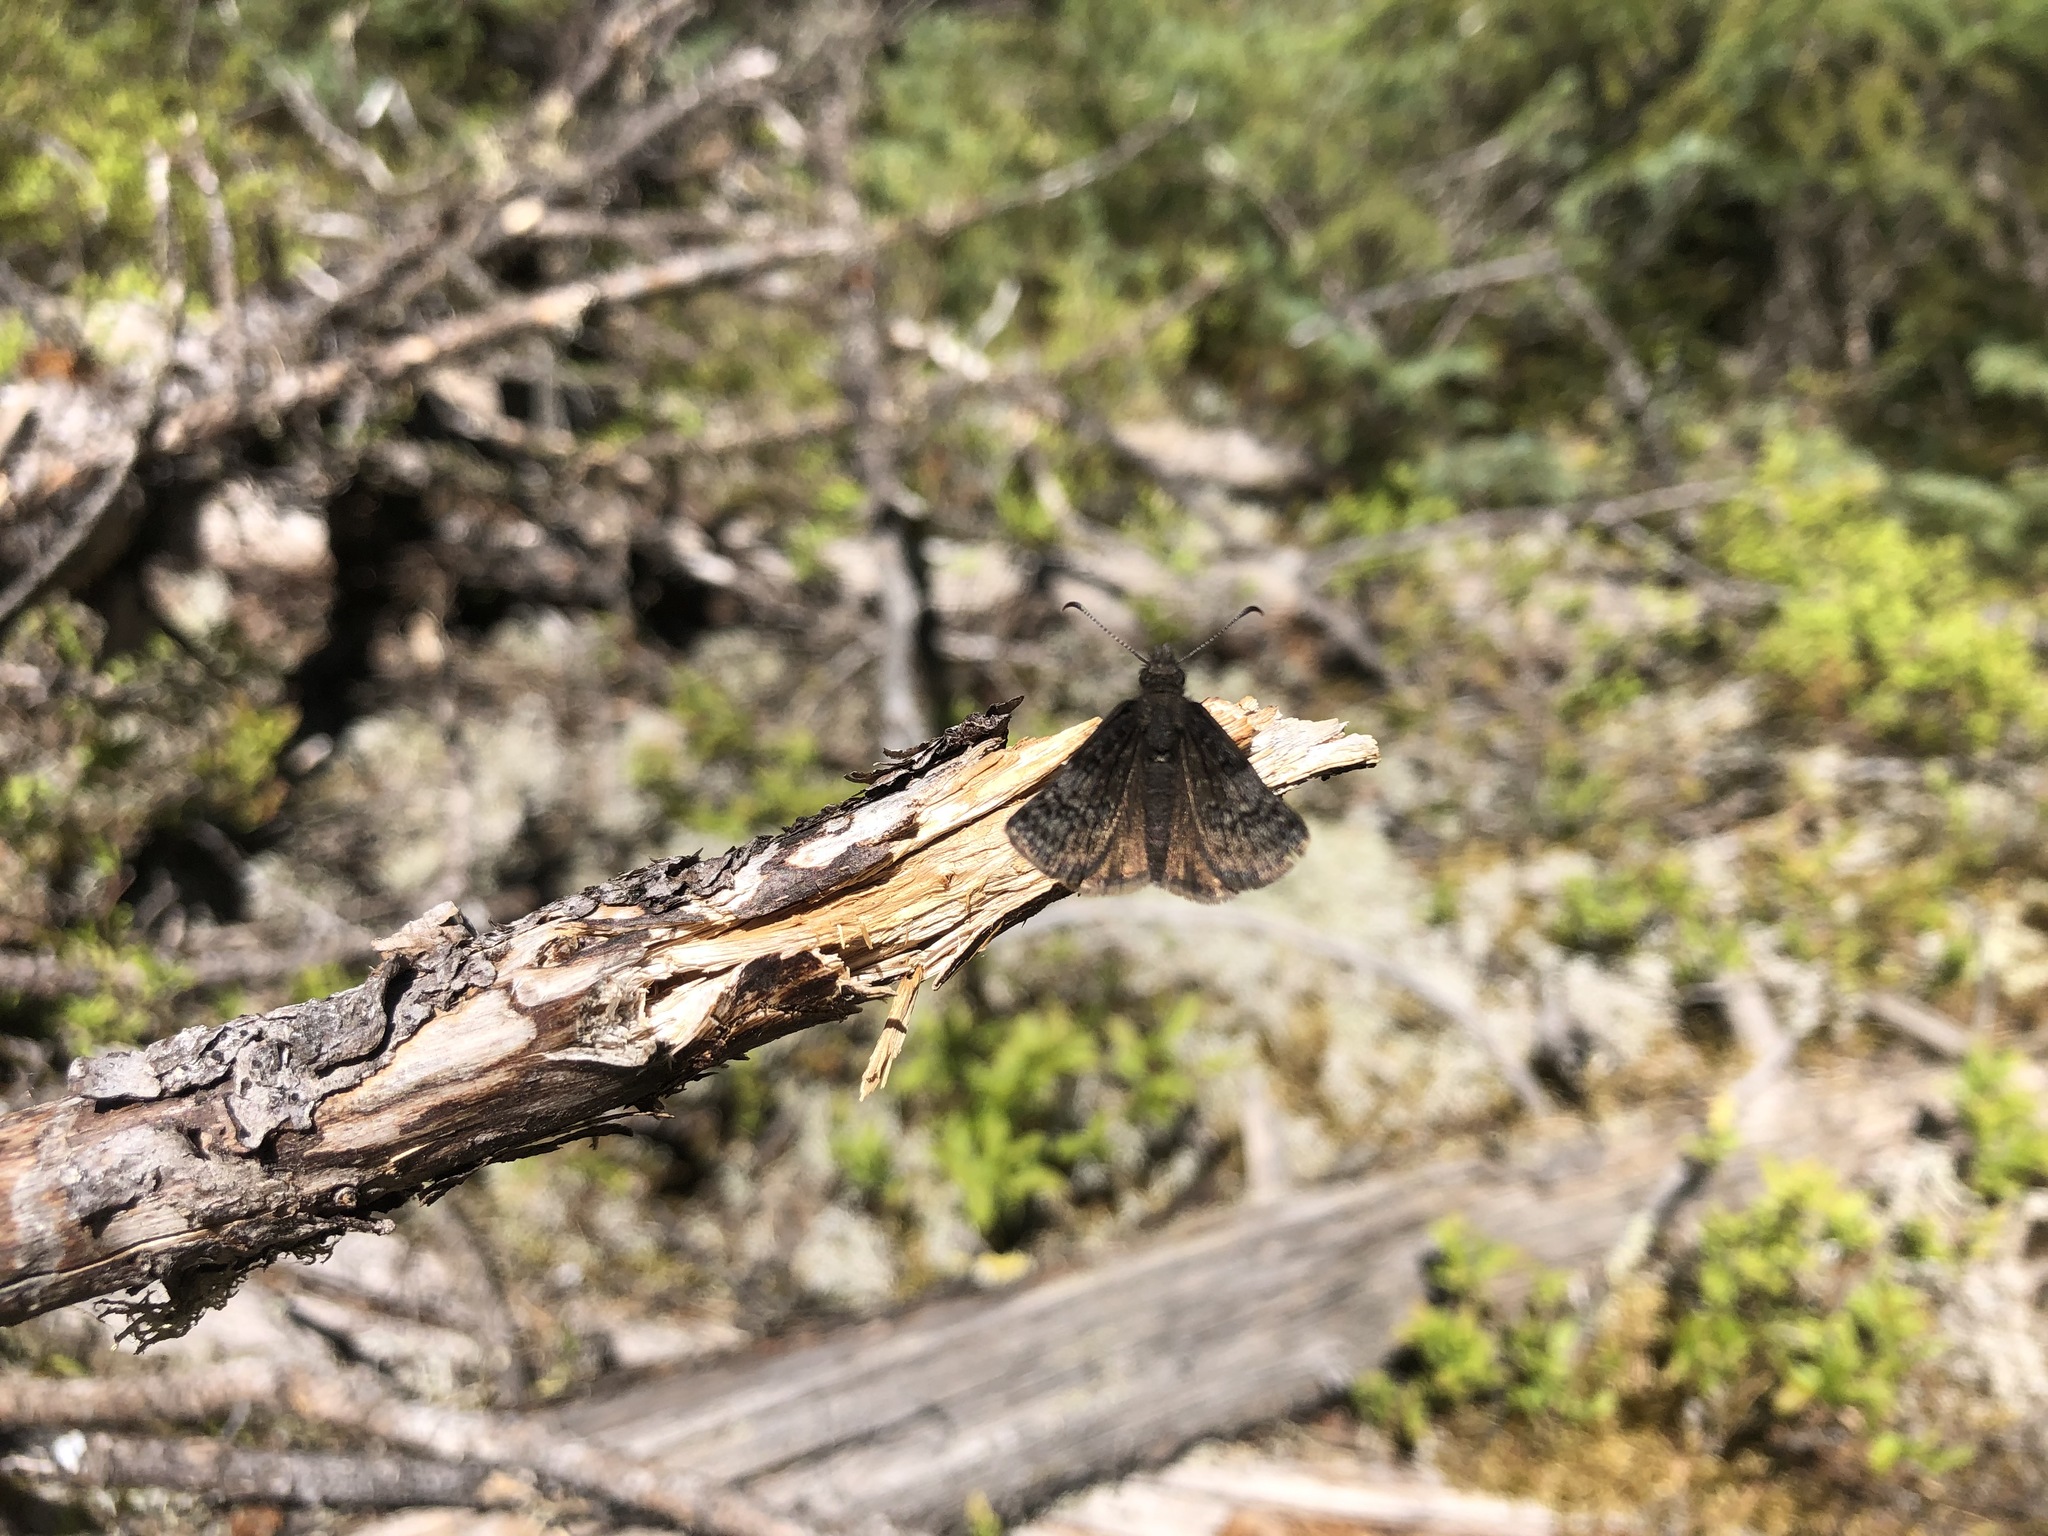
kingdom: Animalia
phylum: Arthropoda
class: Insecta
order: Lepidoptera
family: Hesperiidae
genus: Erynnis
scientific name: Erynnis icelus
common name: Dreamy duskywing
